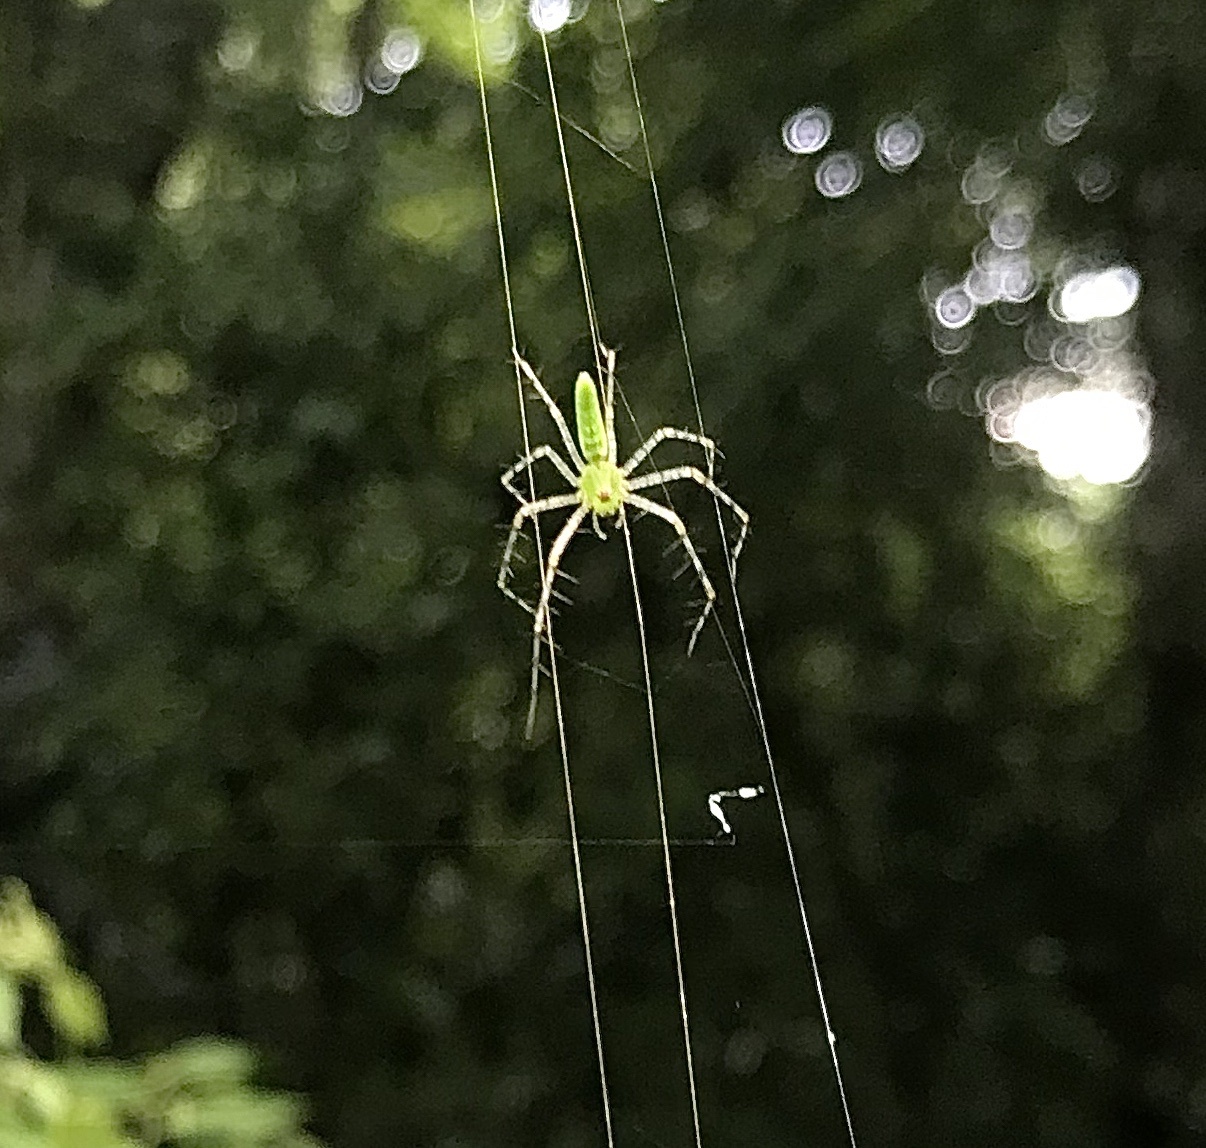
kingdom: Animalia
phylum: Arthropoda
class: Arachnida
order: Araneae
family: Oxyopidae
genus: Peucetia
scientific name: Peucetia viridans
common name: Lynx spiders
